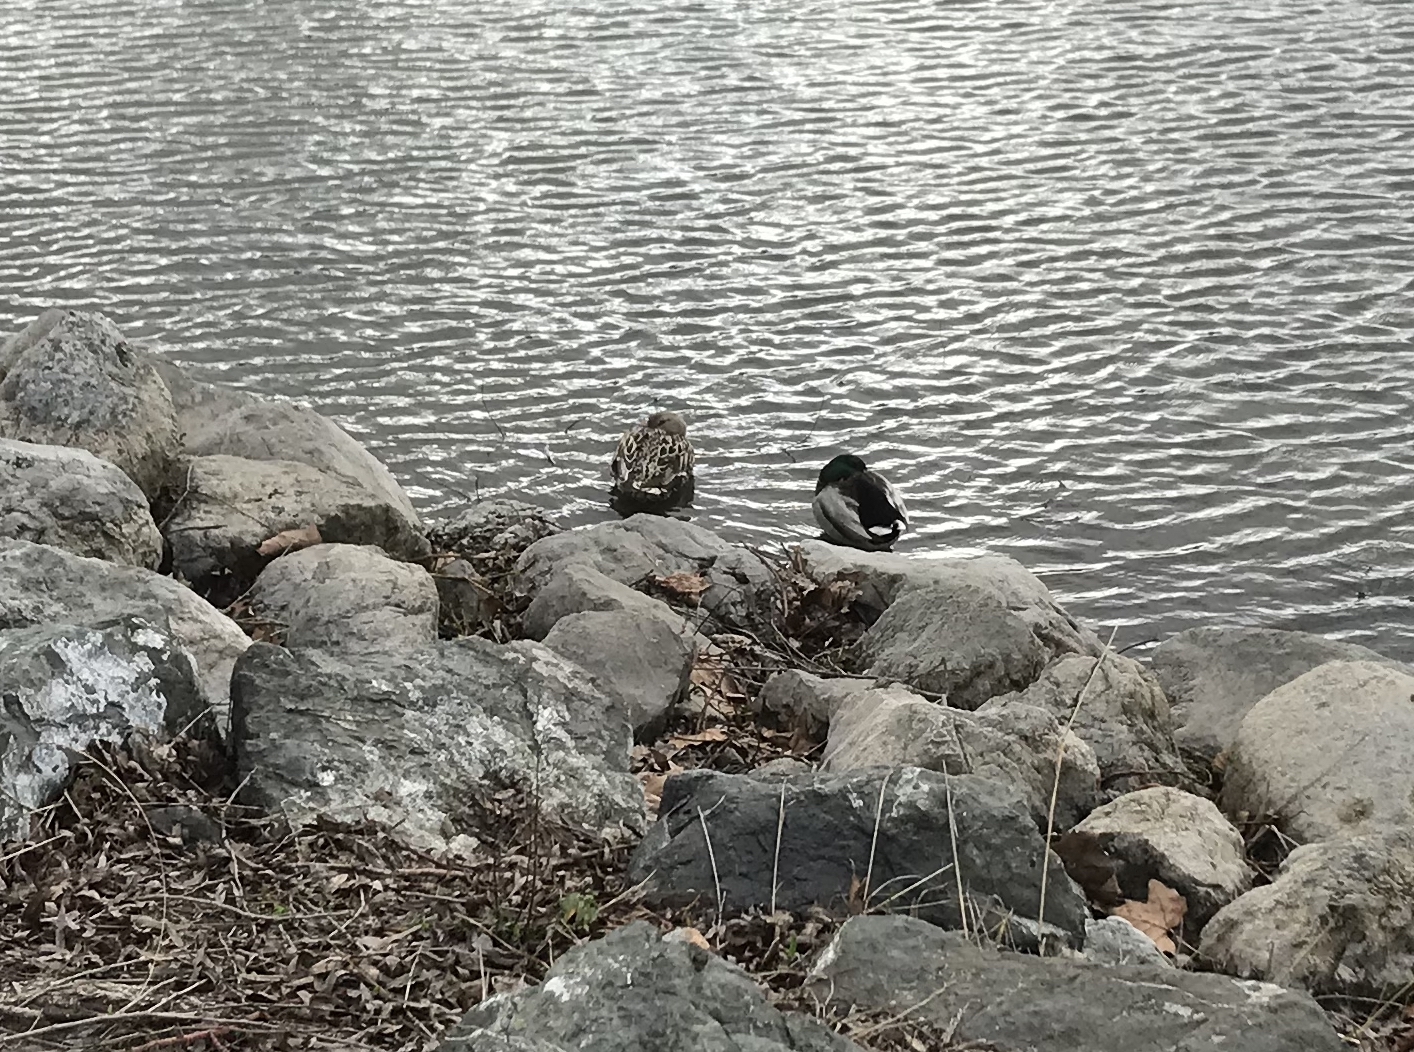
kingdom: Animalia
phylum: Chordata
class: Aves
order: Anseriformes
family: Anatidae
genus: Anas
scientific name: Anas platyrhynchos
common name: Mallard
